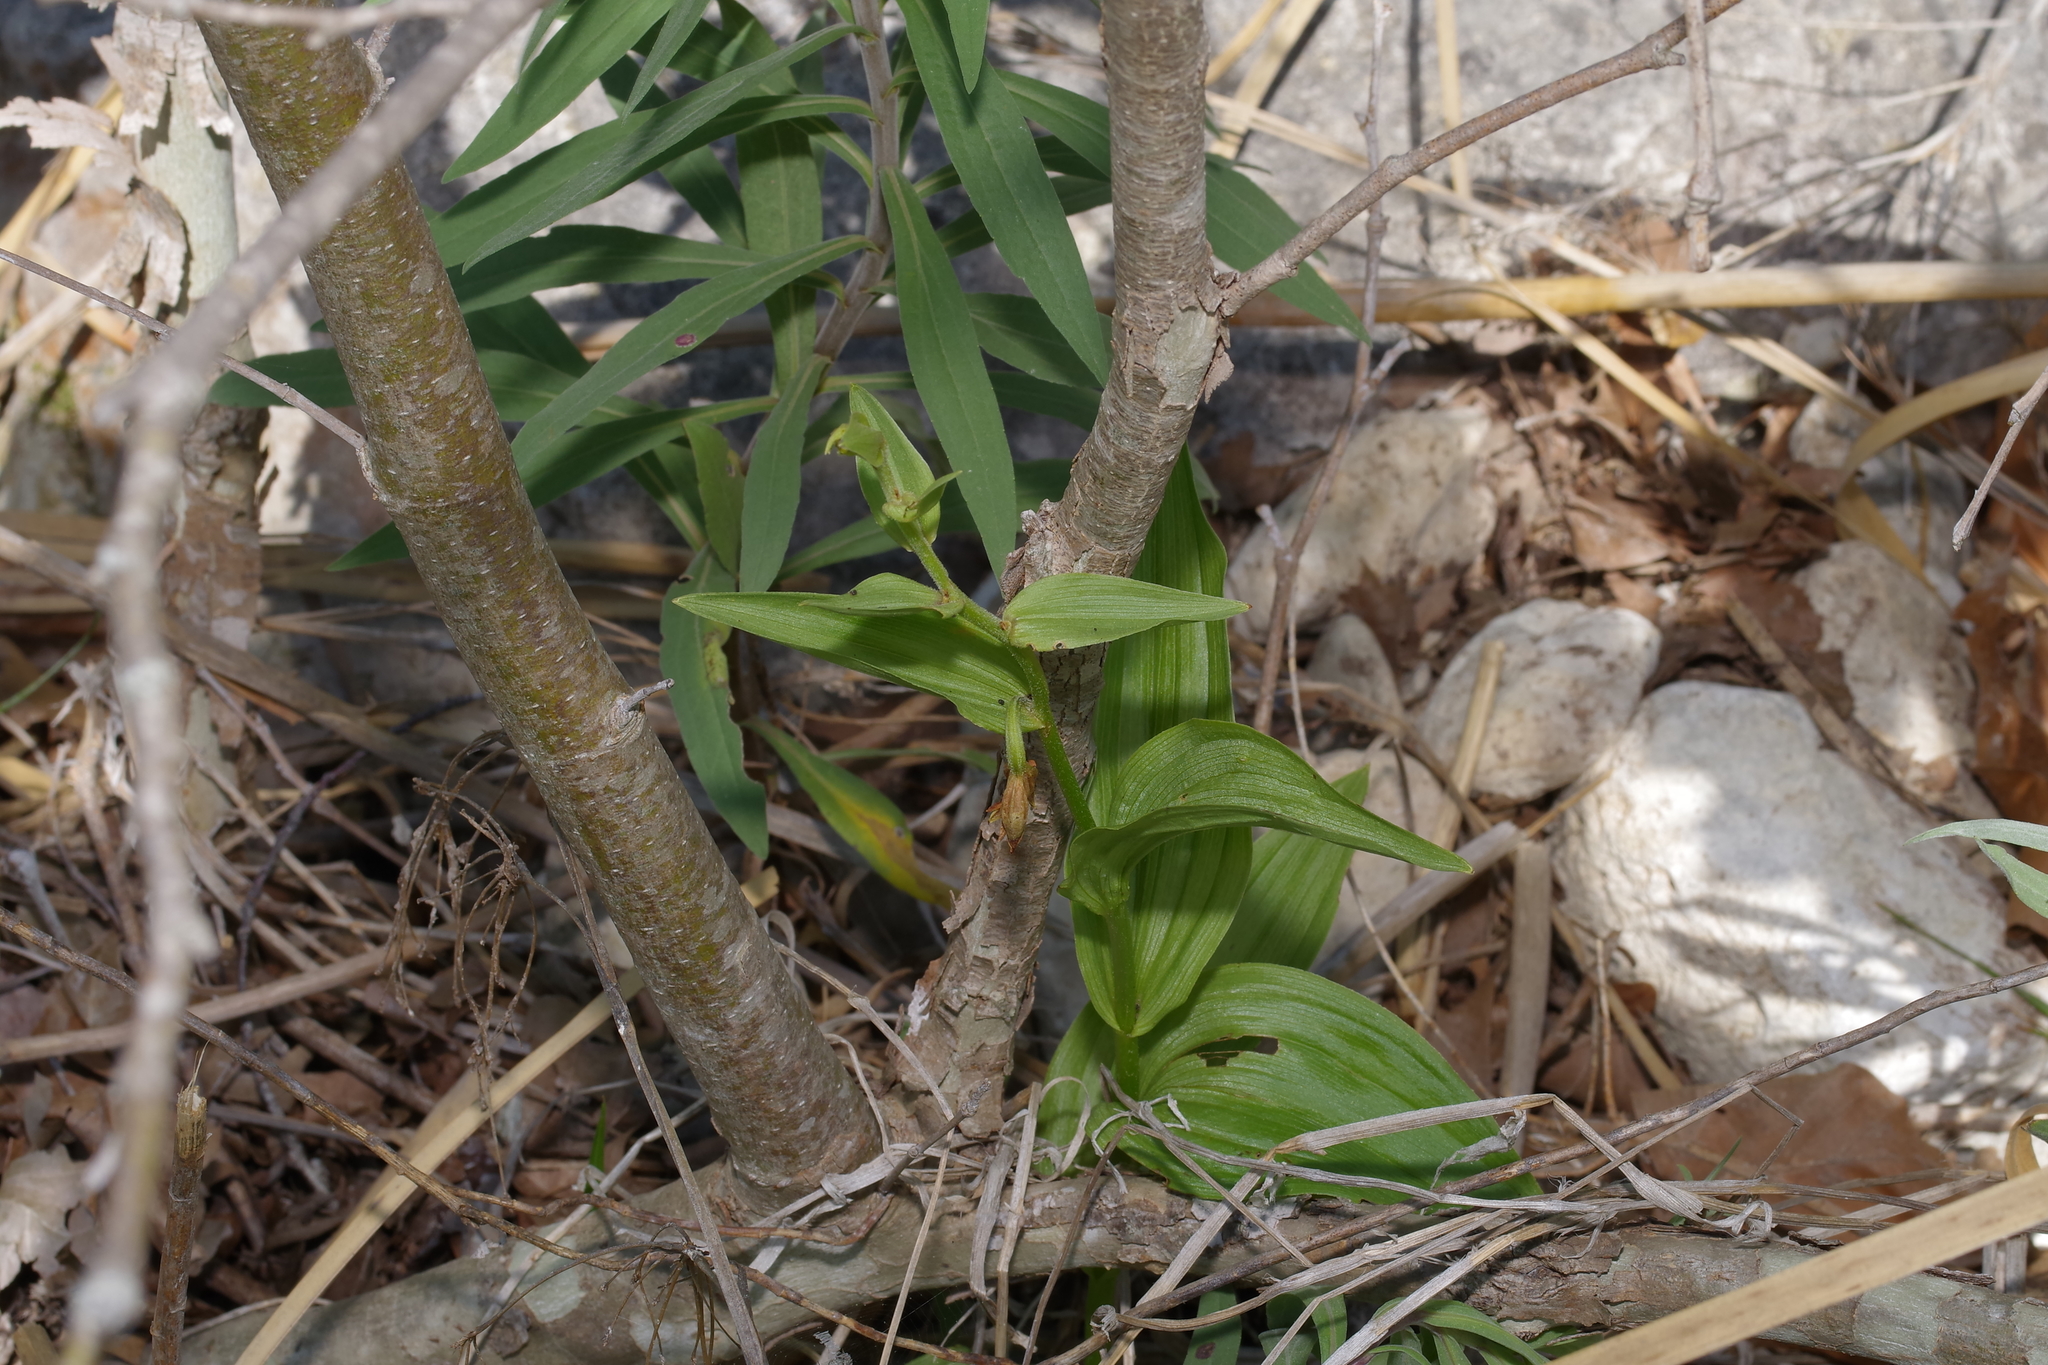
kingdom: Plantae
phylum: Tracheophyta
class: Liliopsida
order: Asparagales
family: Orchidaceae
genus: Epipactis
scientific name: Epipactis gigantea
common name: Chatterbox
